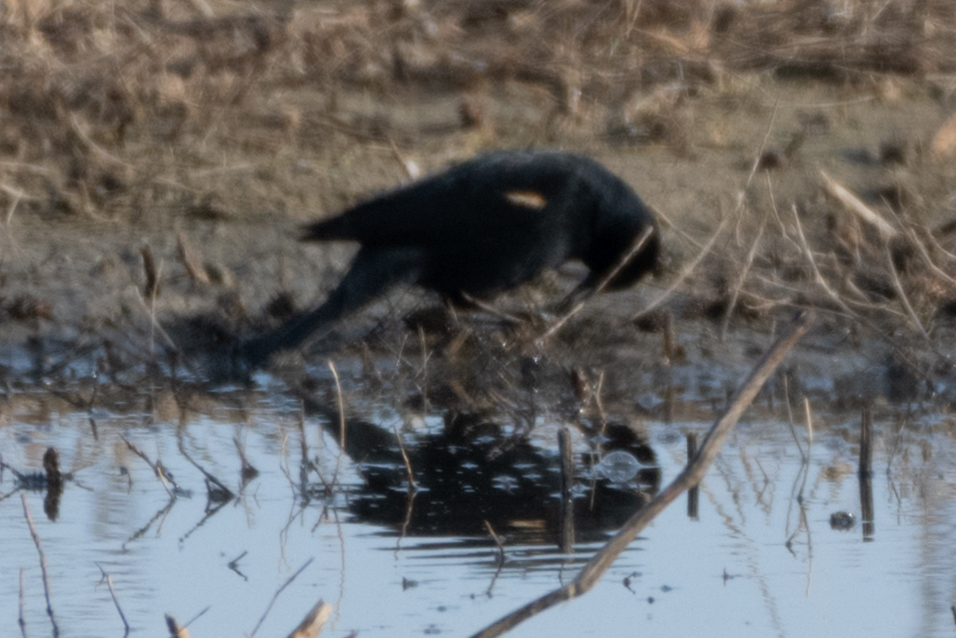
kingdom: Animalia
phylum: Chordata
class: Aves
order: Passeriformes
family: Icteridae
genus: Agelaius
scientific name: Agelaius phoeniceus
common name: Red-winged blackbird
